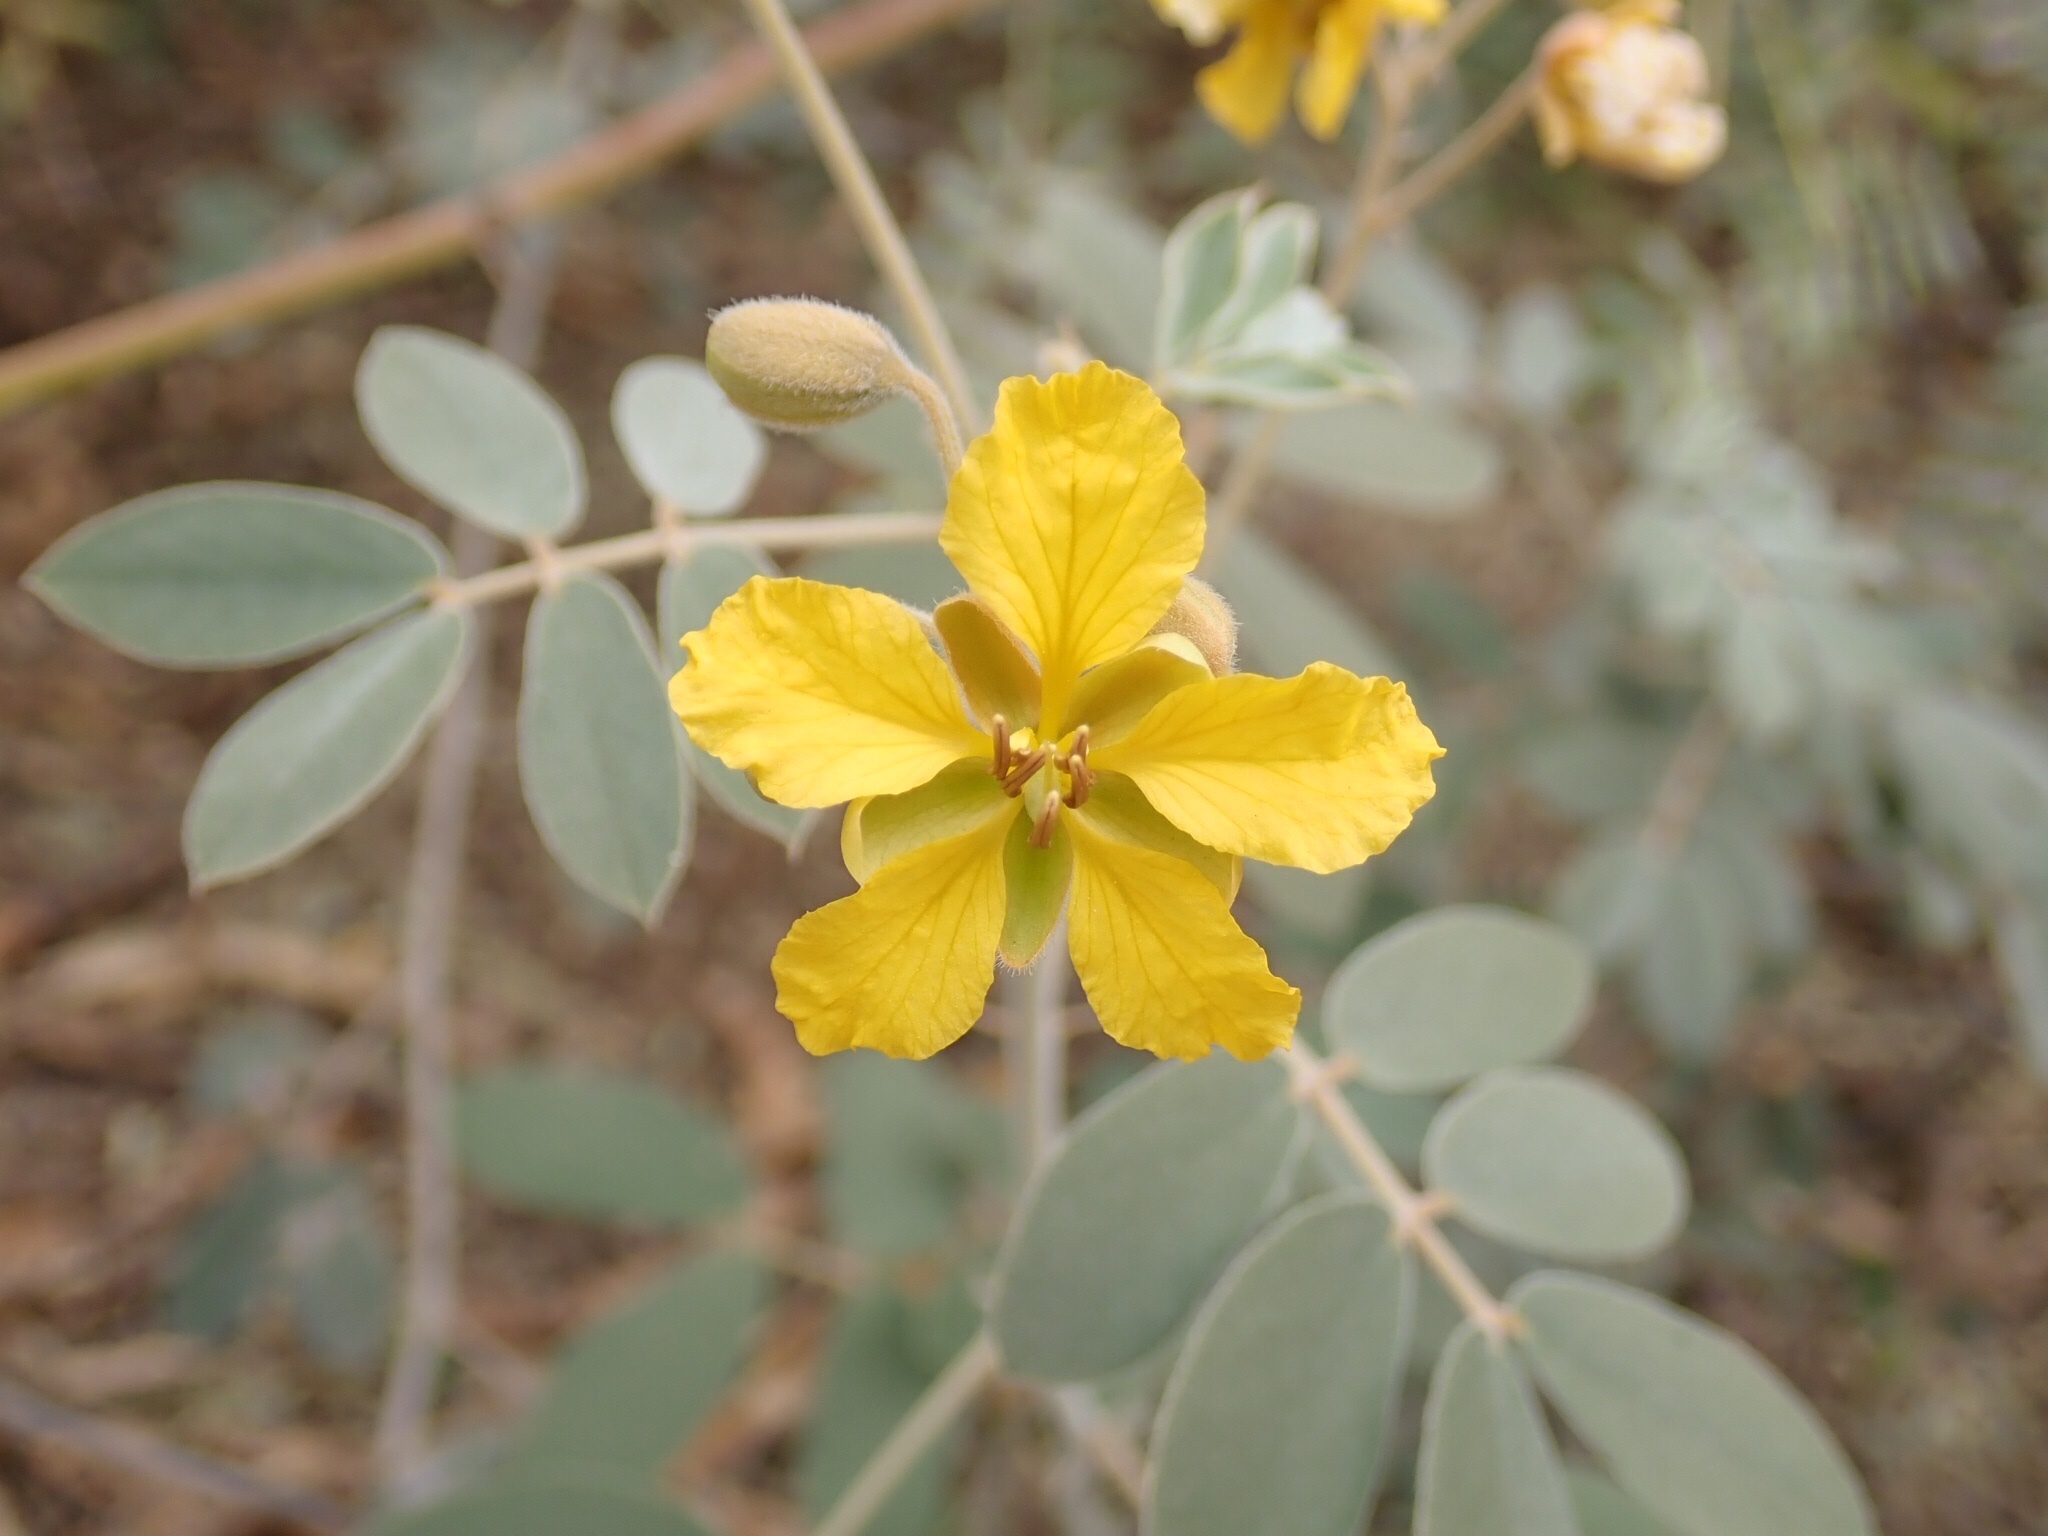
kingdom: Plantae
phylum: Tracheophyta
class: Magnoliopsida
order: Fabales
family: Fabaceae
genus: Senna
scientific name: Senna covesii
